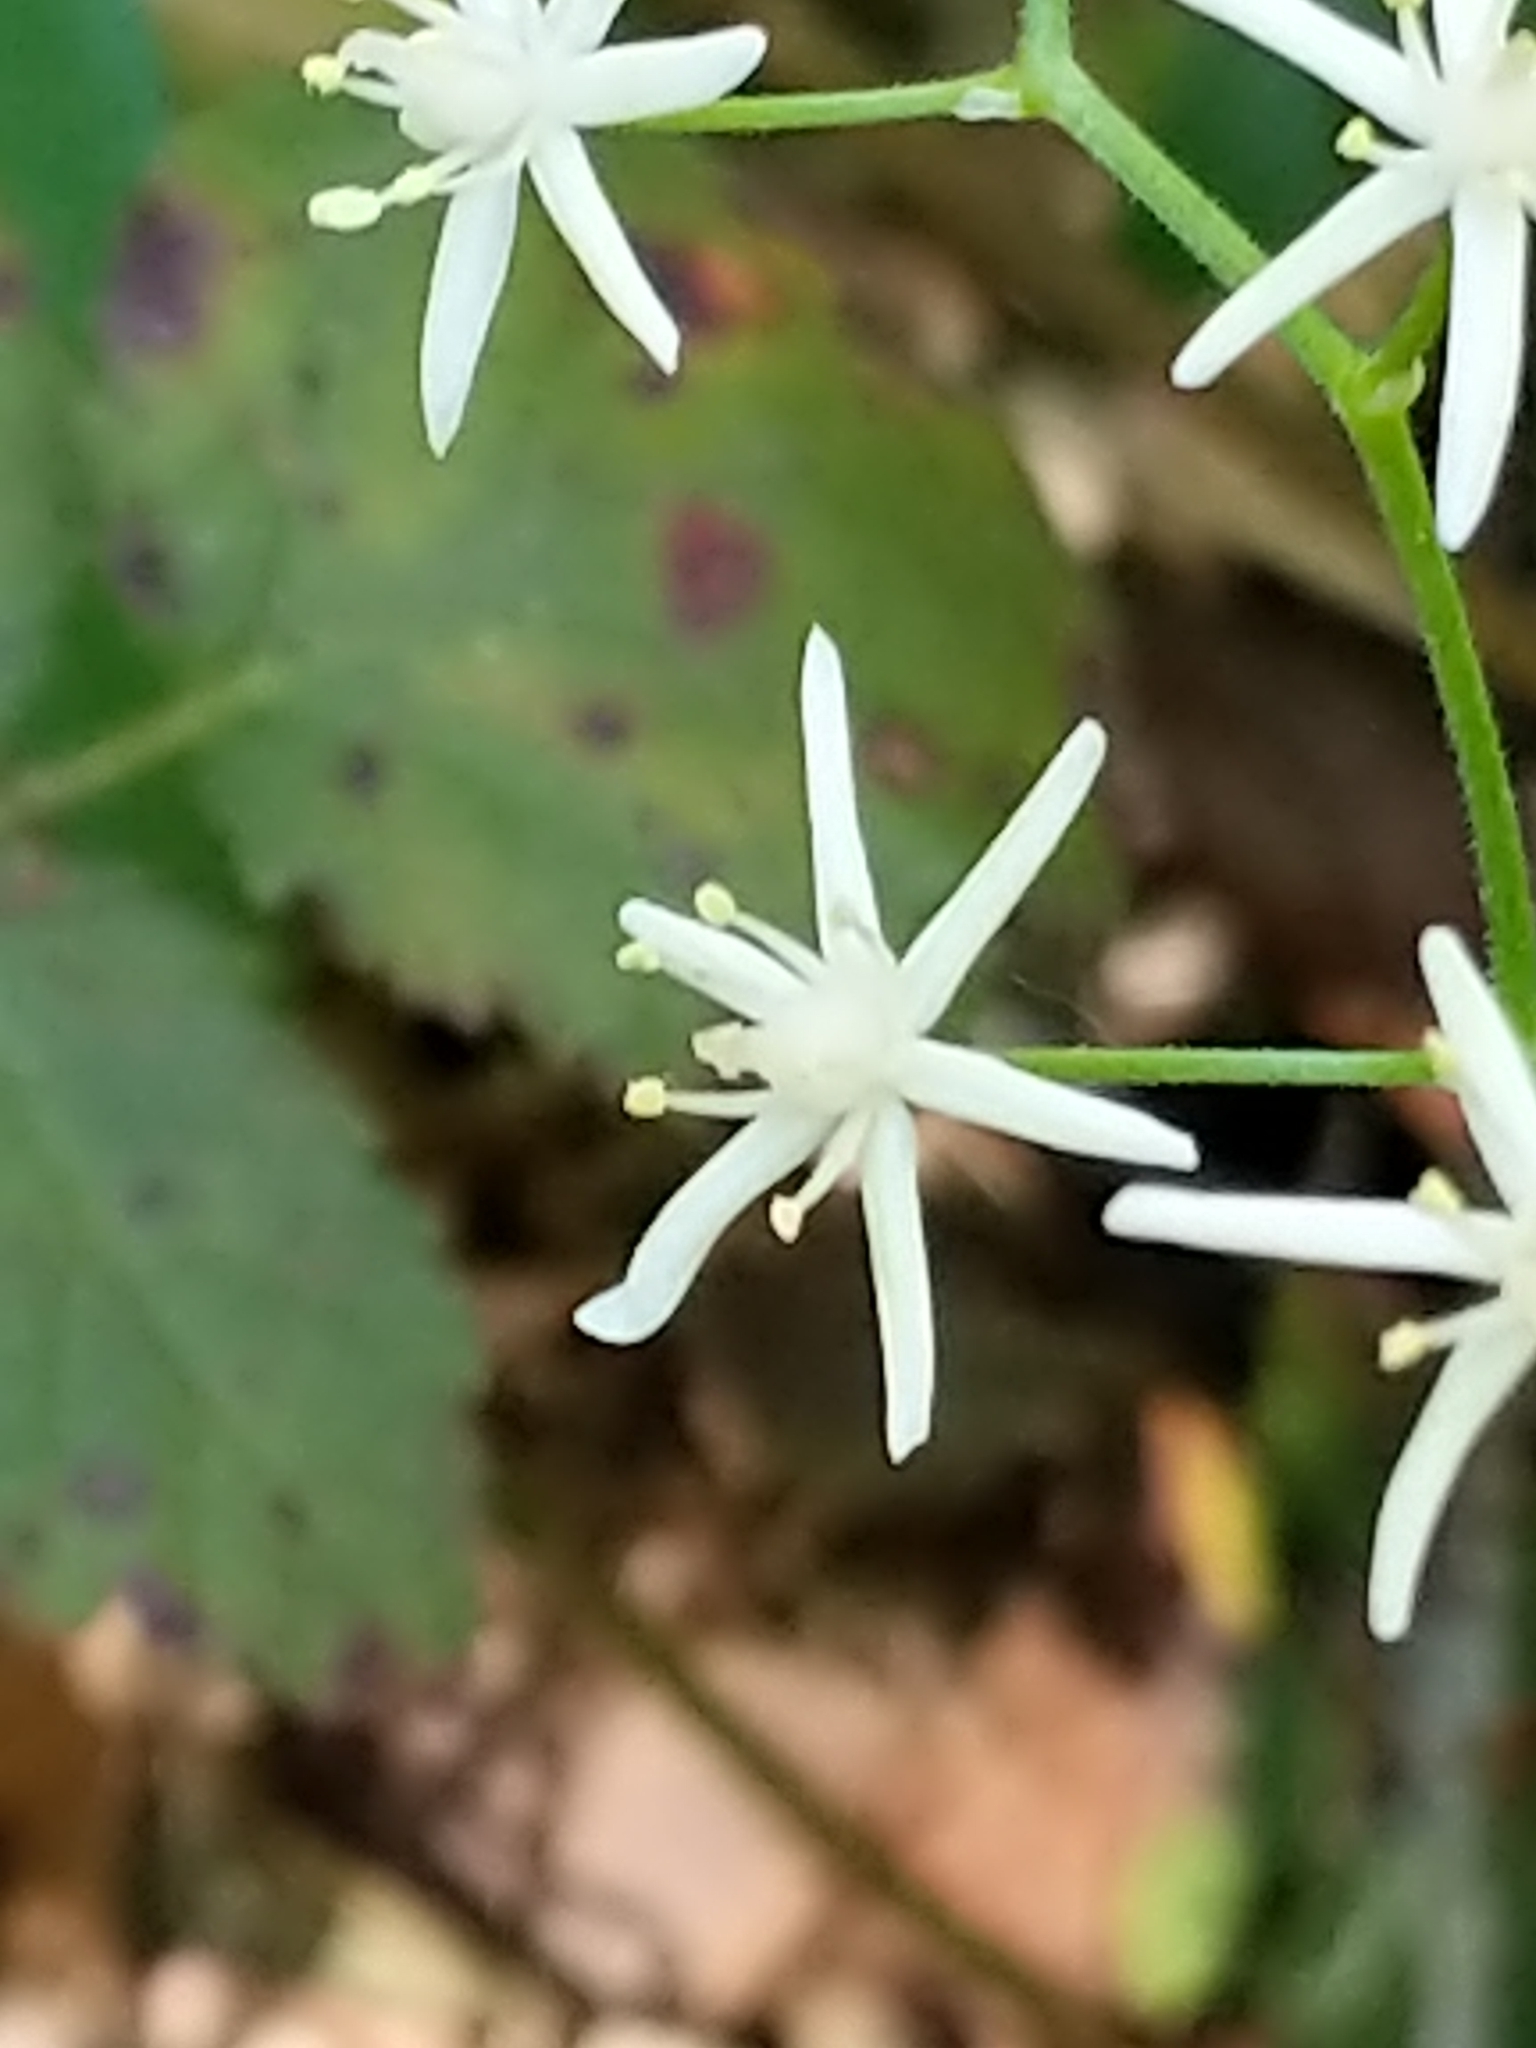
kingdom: Plantae
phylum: Tracheophyta
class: Liliopsida
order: Asparagales
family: Asparagaceae
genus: Maianthemum
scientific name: Maianthemum stellatum
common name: Little false solomon's seal
